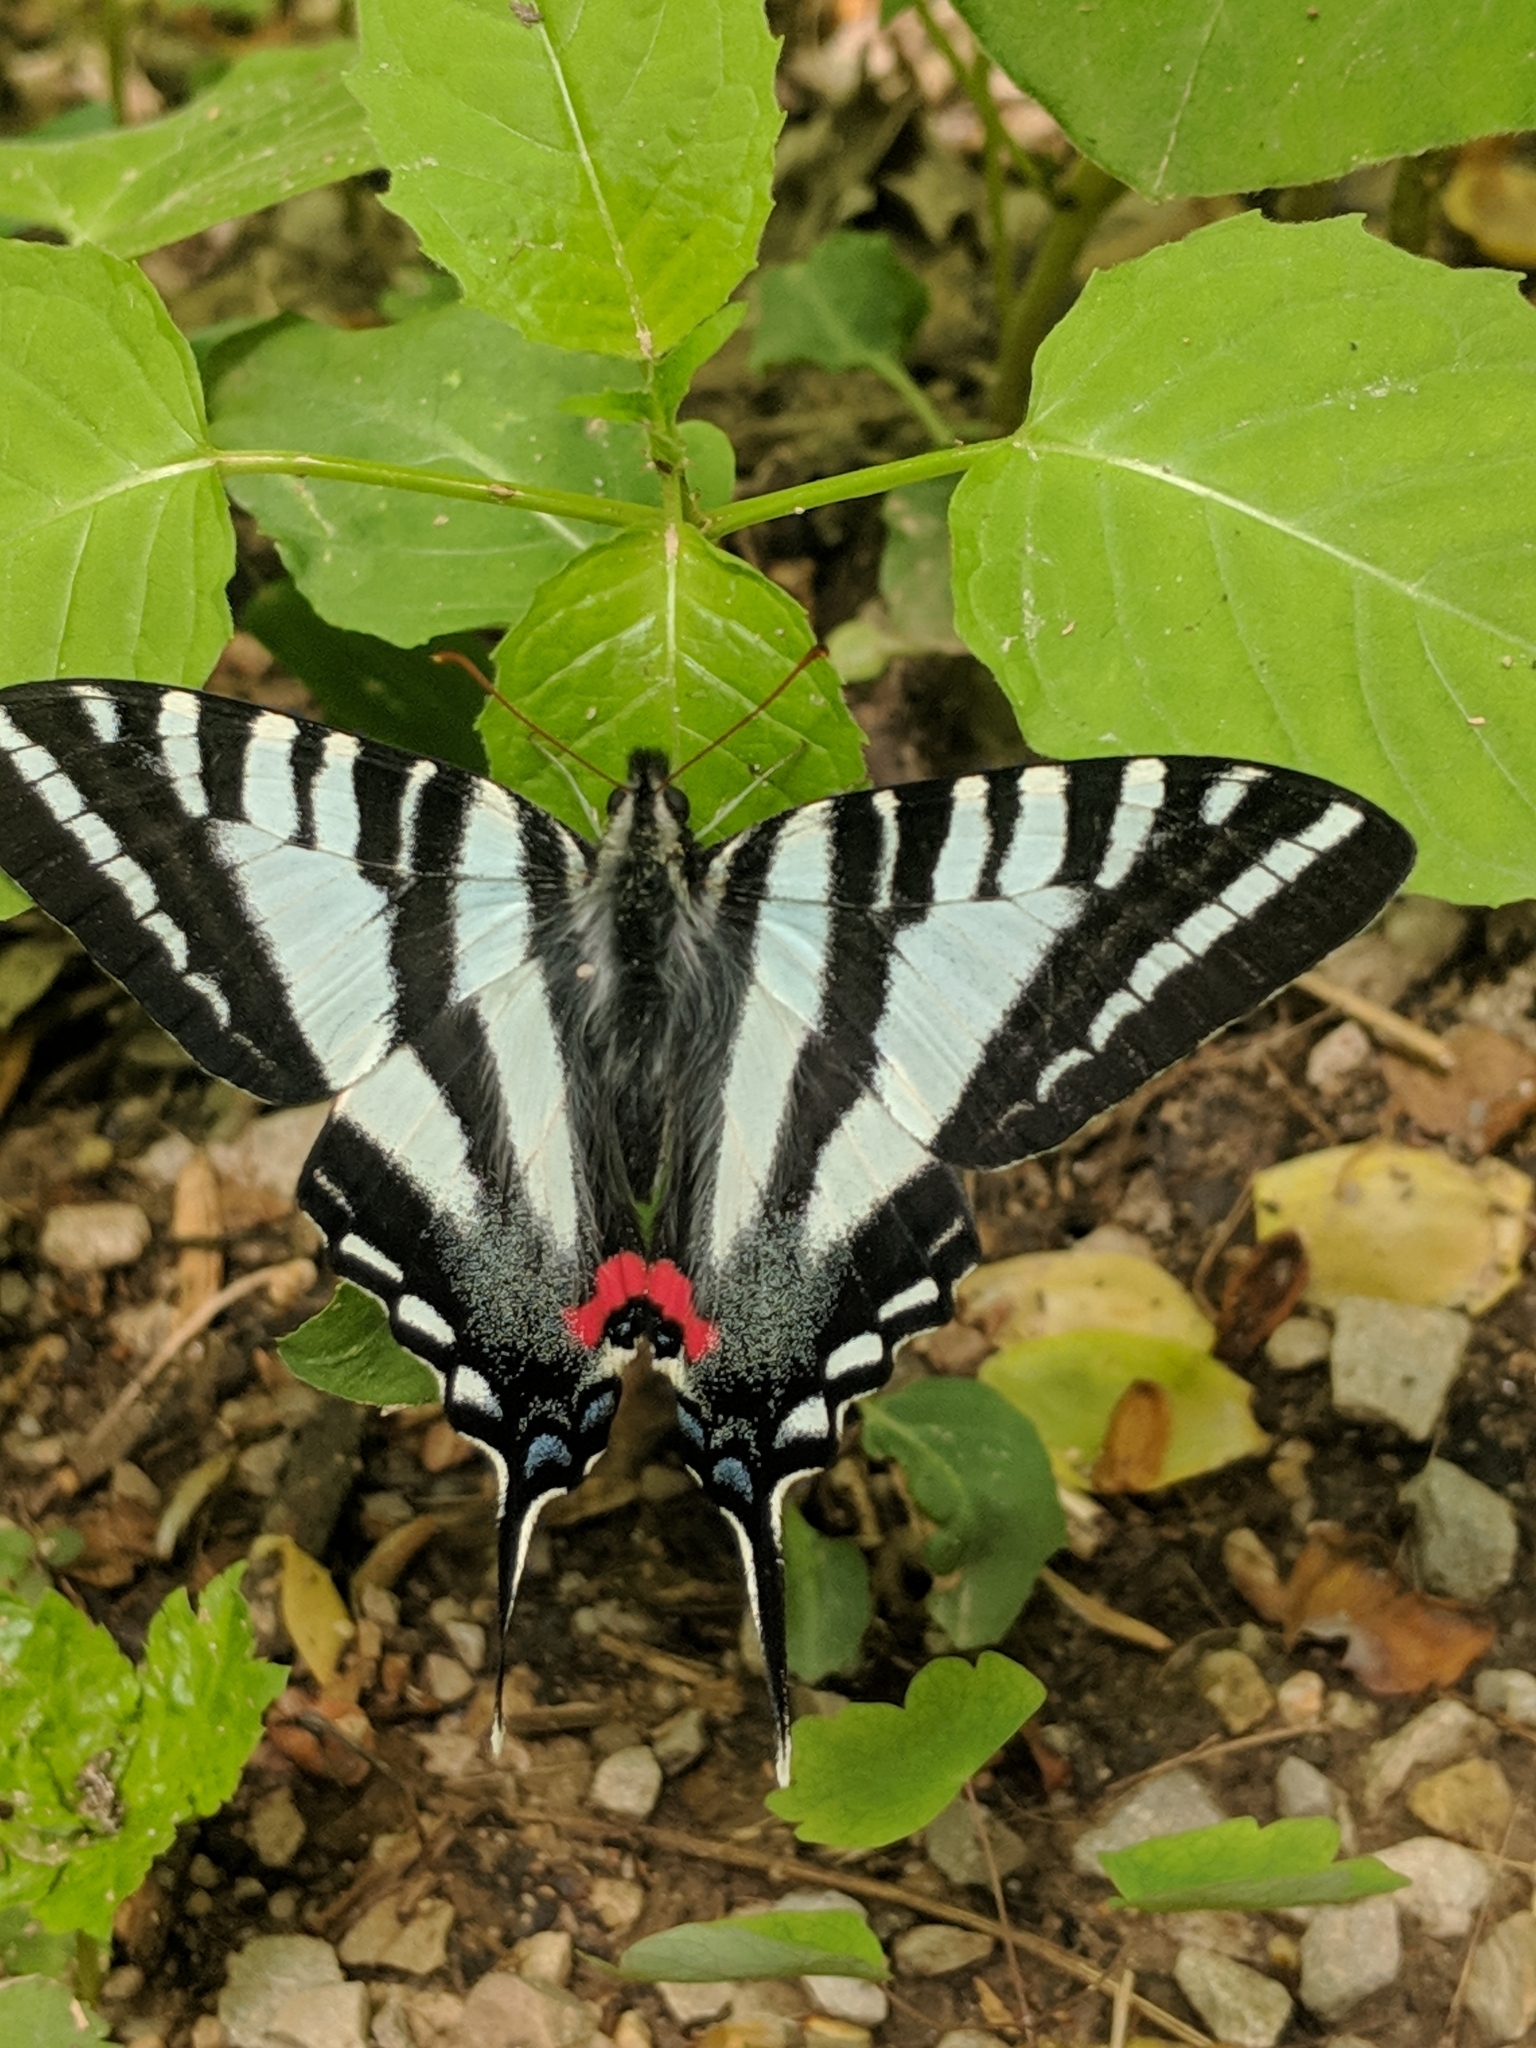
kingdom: Animalia
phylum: Arthropoda
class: Insecta
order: Lepidoptera
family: Papilionidae
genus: Protographium
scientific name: Protographium marcellus
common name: Zebra swallowtail
